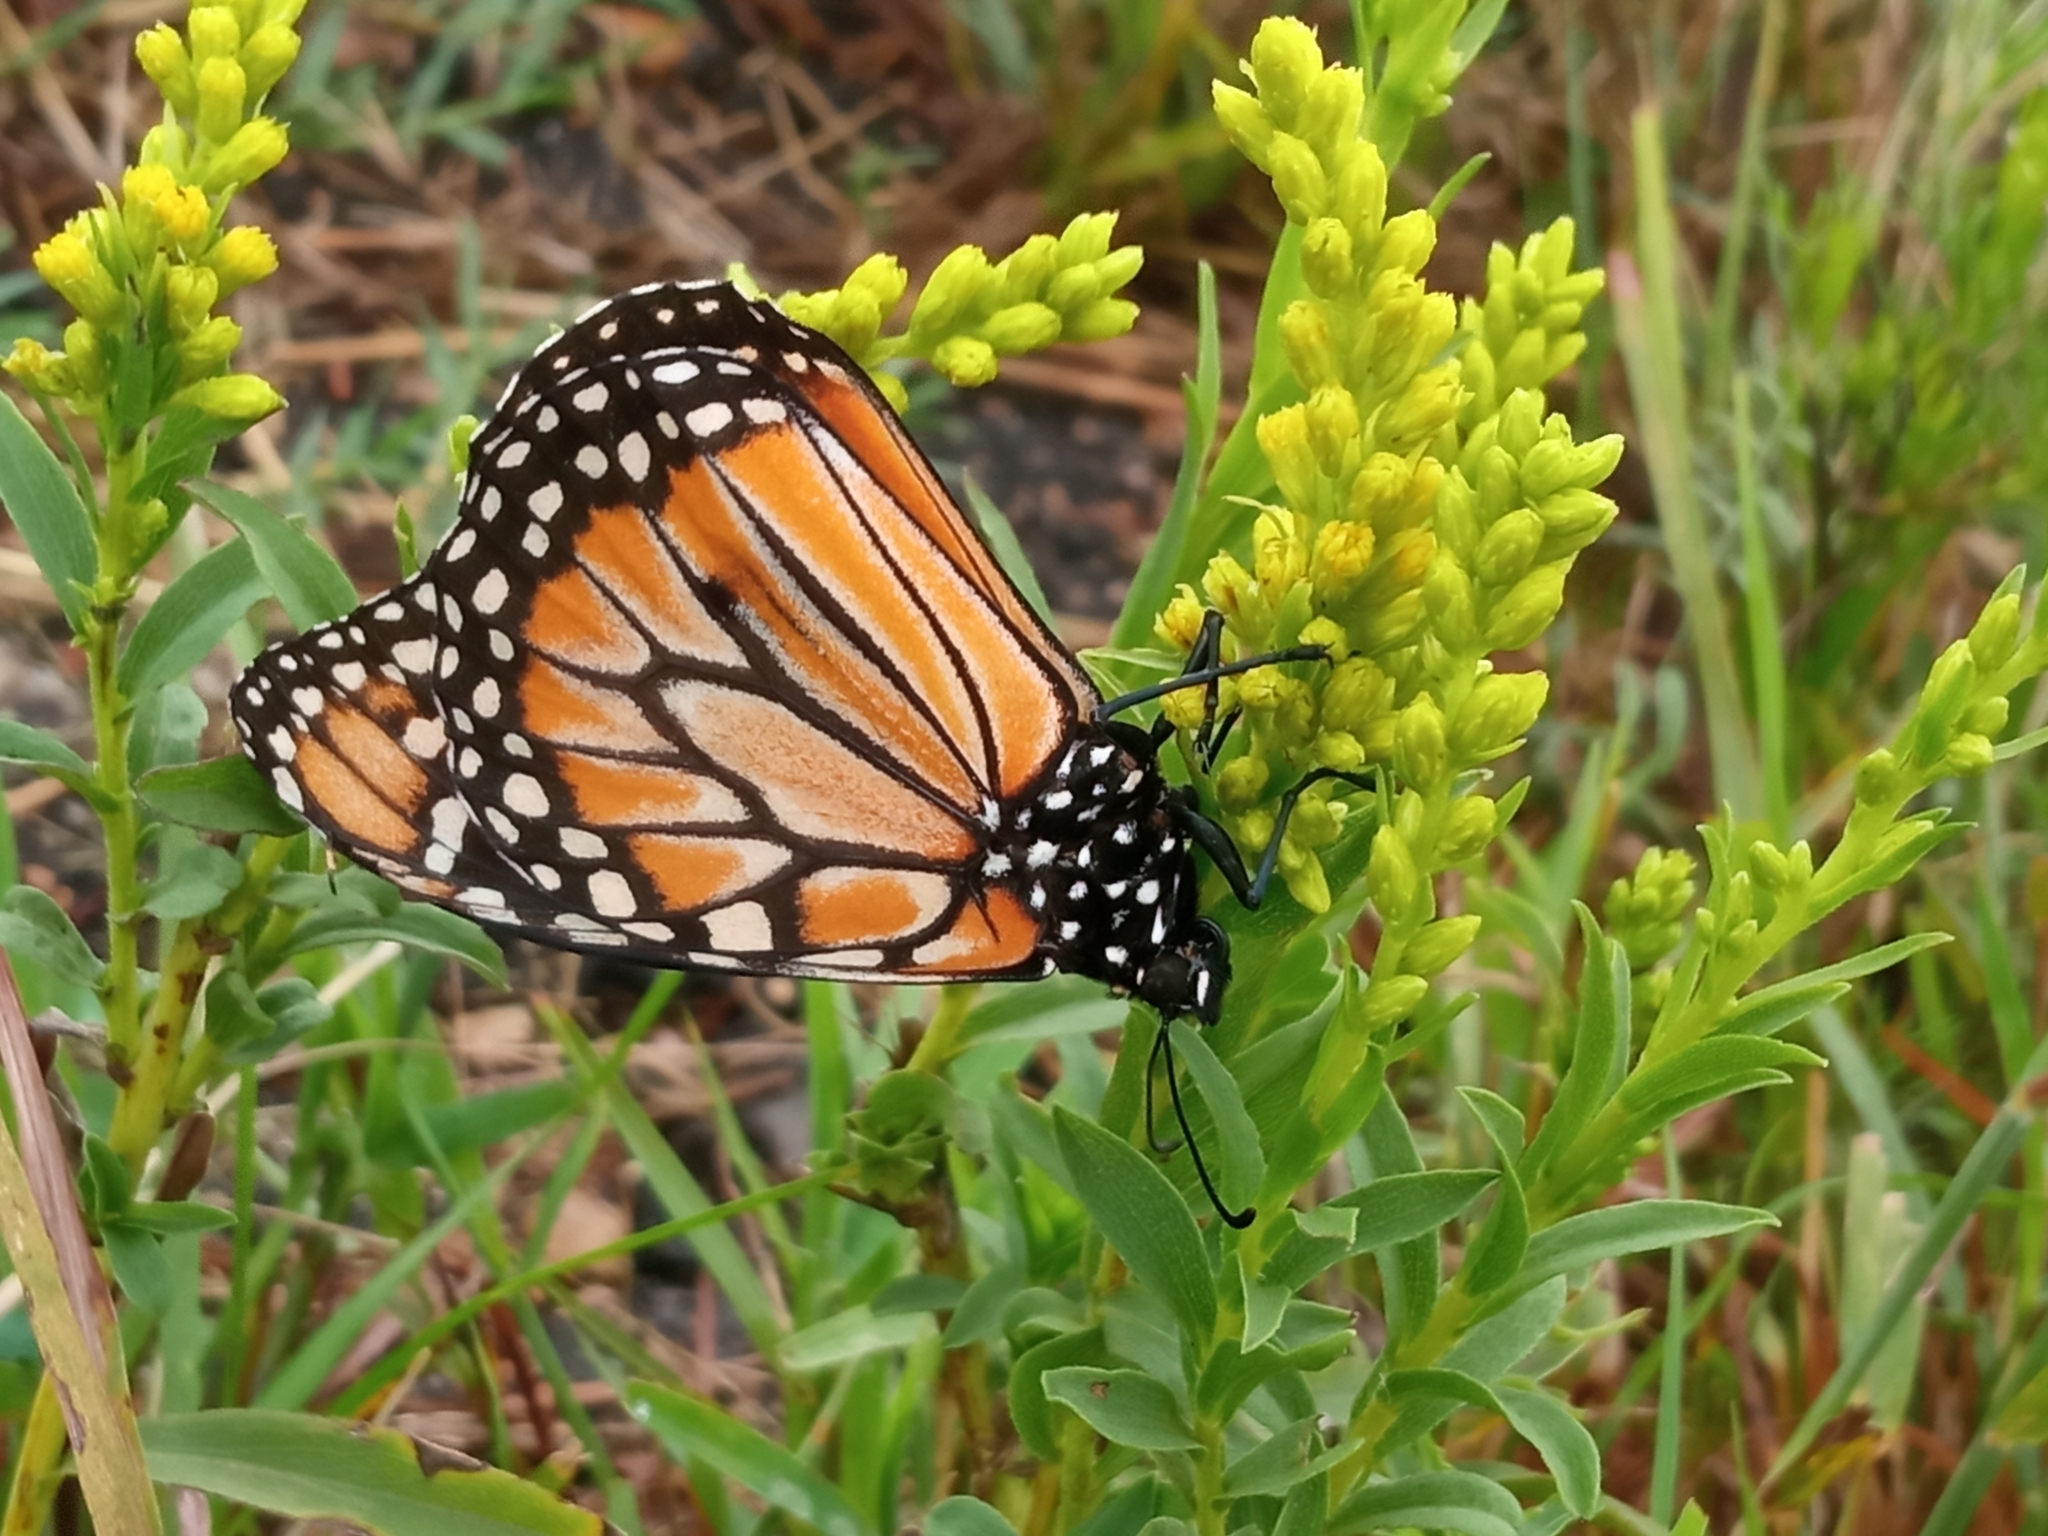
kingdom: Animalia
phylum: Arthropoda
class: Insecta
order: Lepidoptera
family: Nymphalidae
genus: Danaus
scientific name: Danaus erippus
